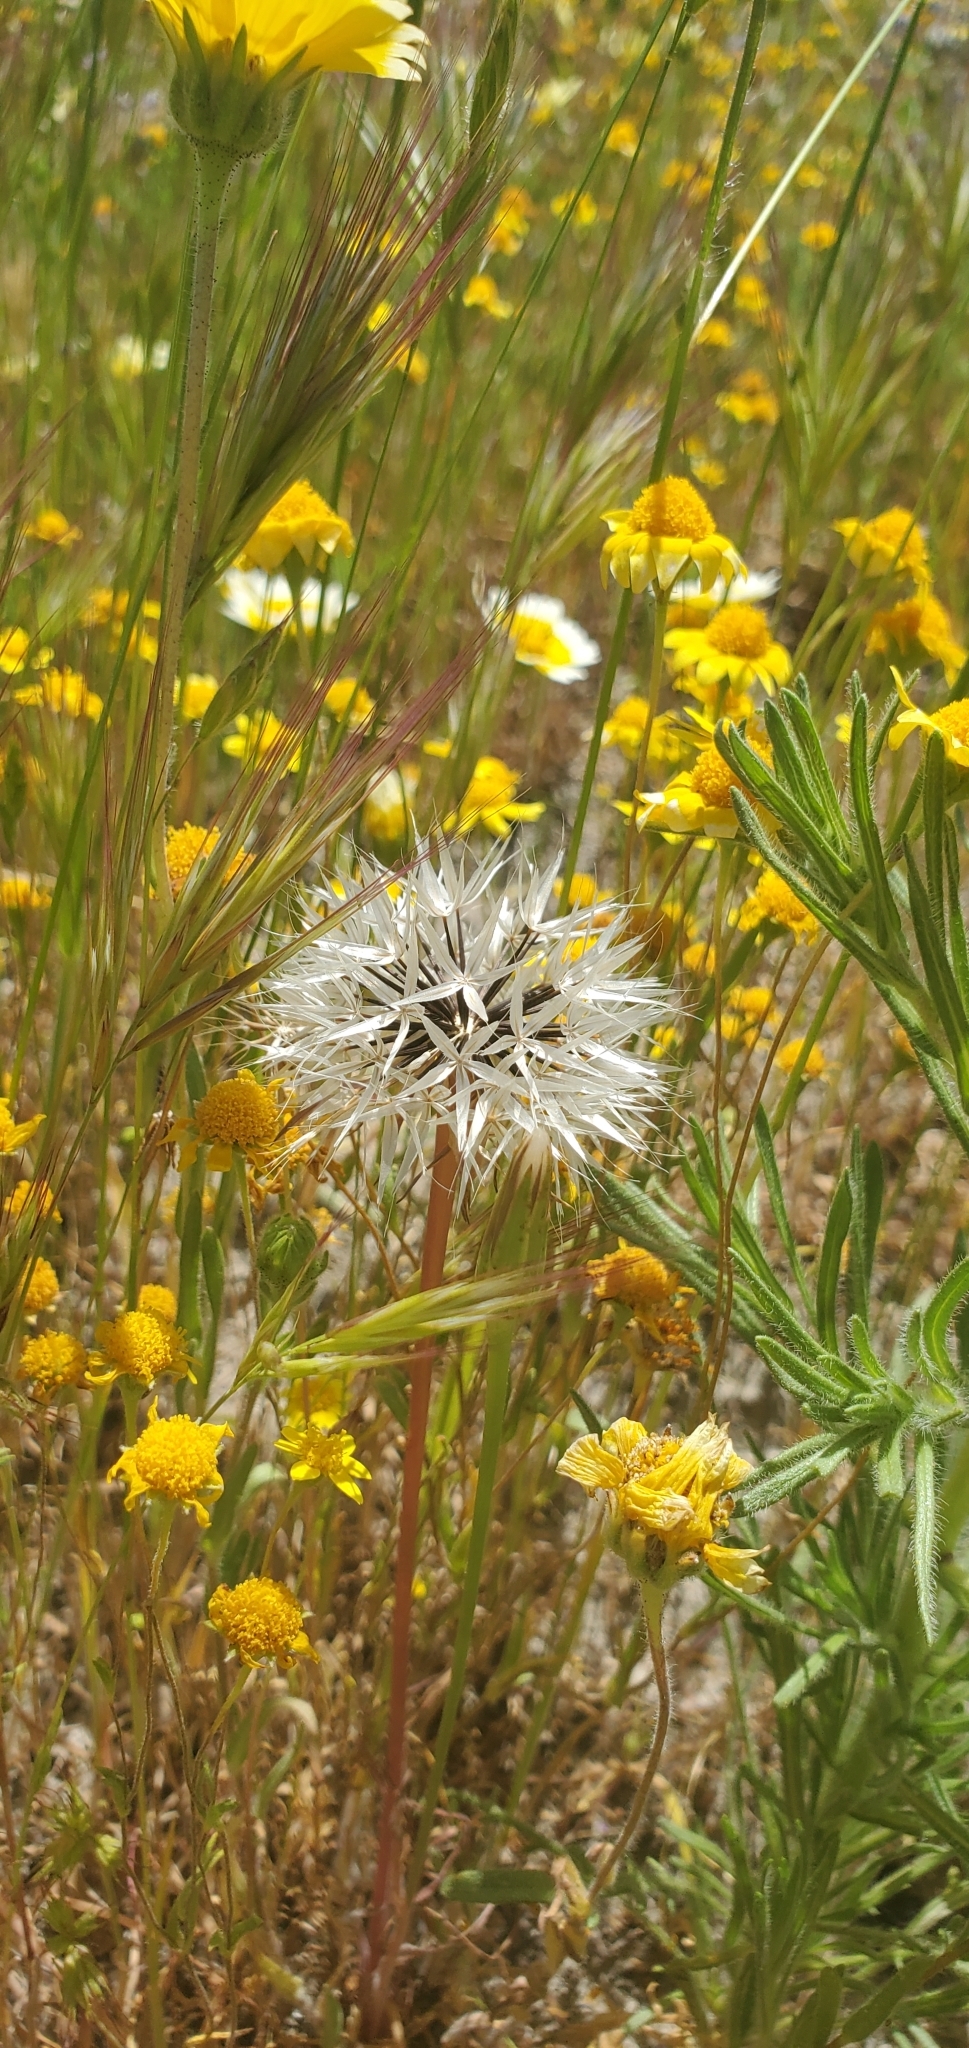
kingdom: Plantae
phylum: Tracheophyta
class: Magnoliopsida
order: Asterales
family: Asteraceae
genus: Microseris
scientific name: Microseris lindleyi
